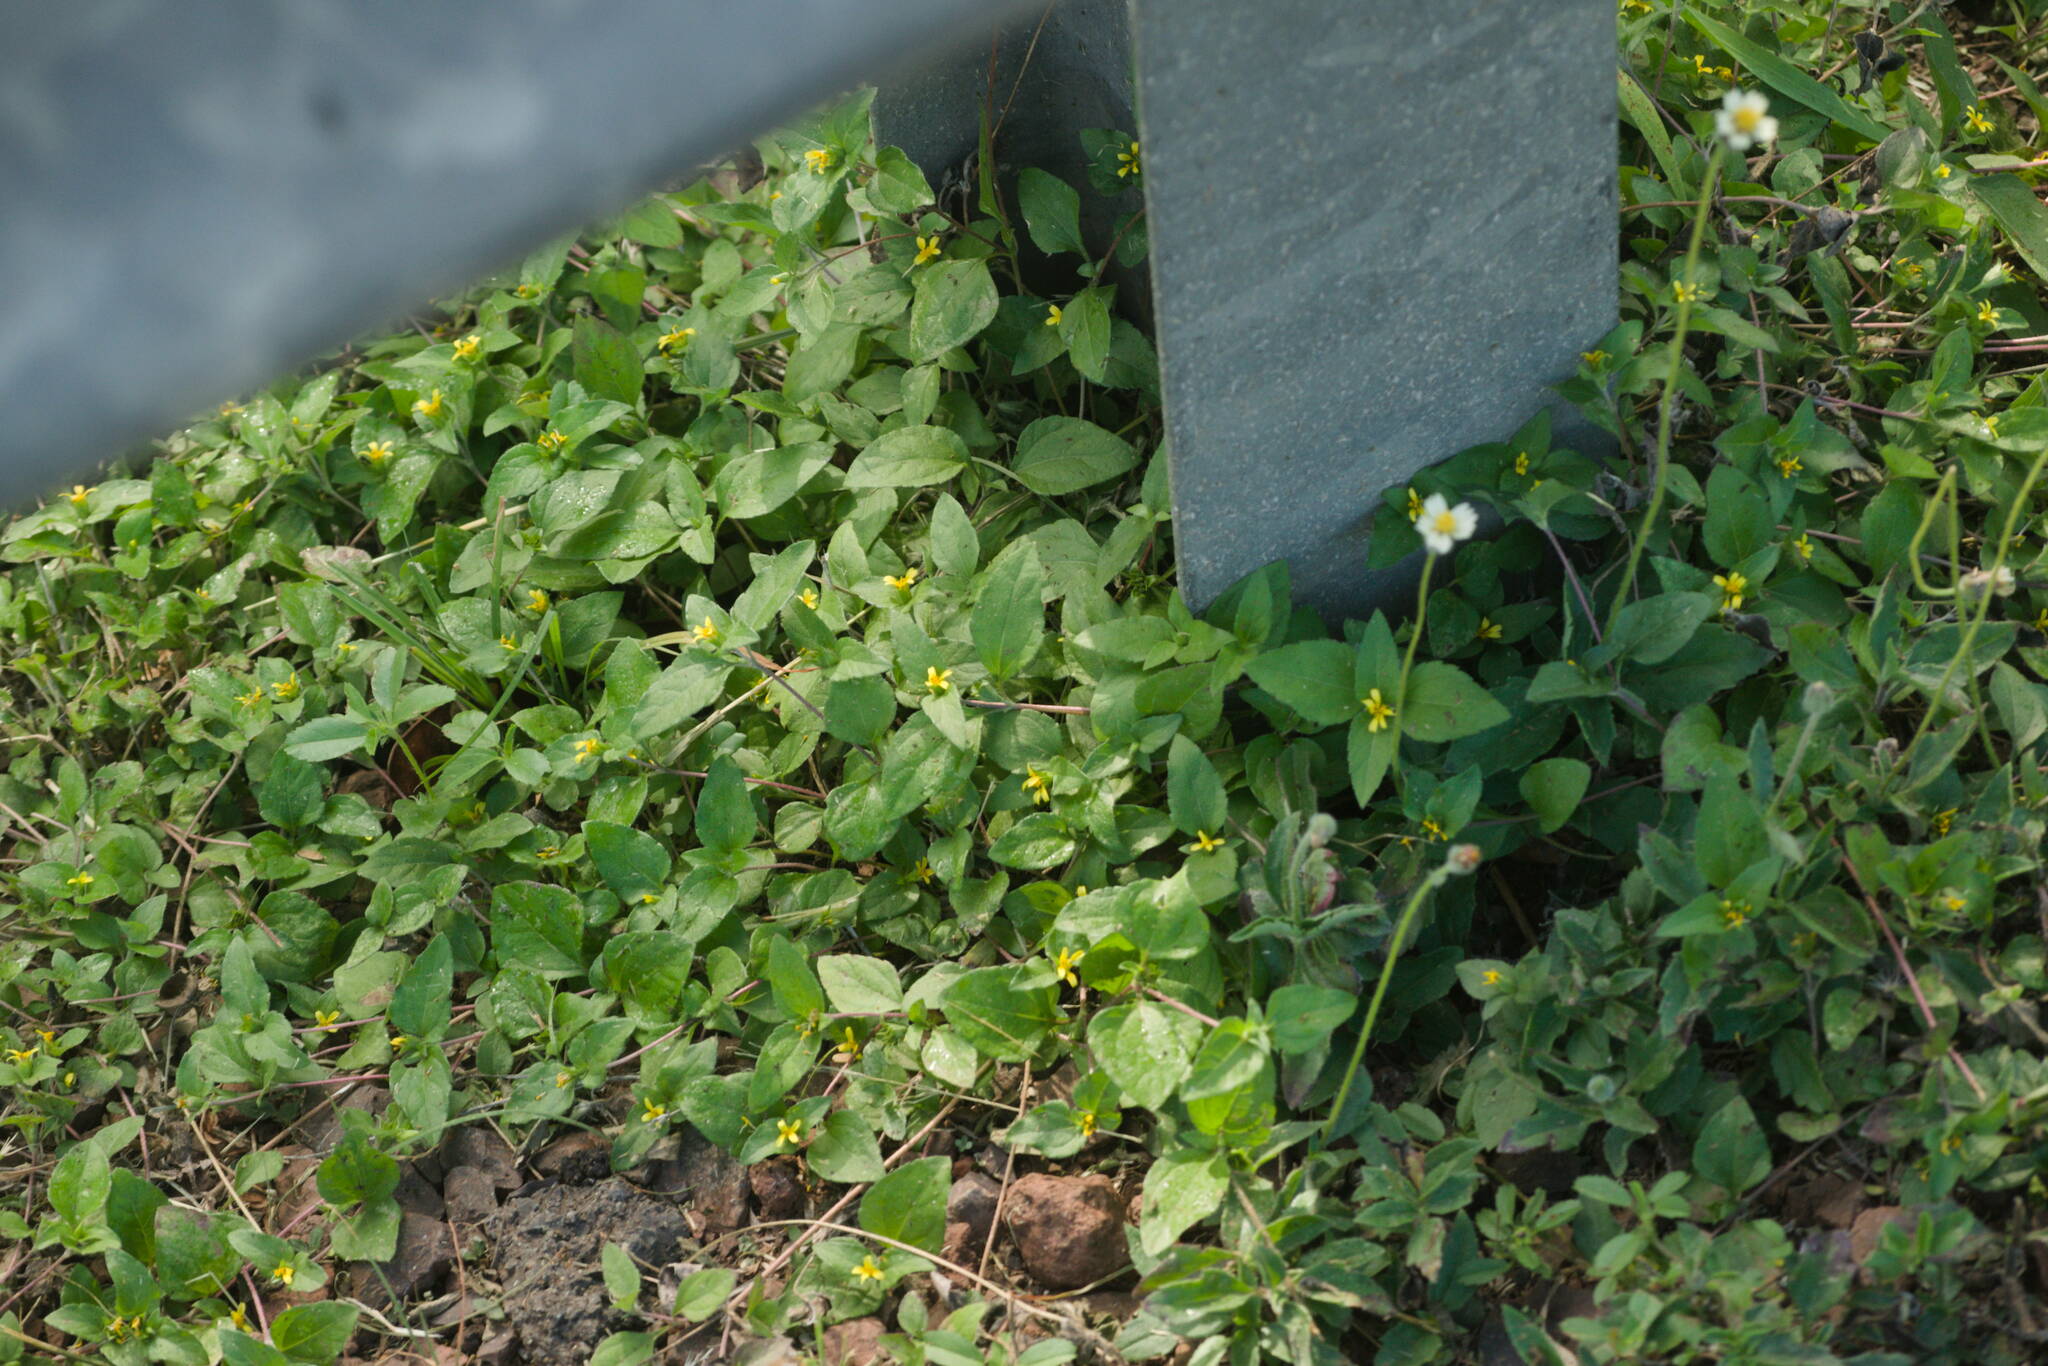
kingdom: Plantae
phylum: Tracheophyta
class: Magnoliopsida
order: Asterales
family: Asteraceae
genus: Tridax
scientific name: Tridax procumbens
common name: Coatbuttons
